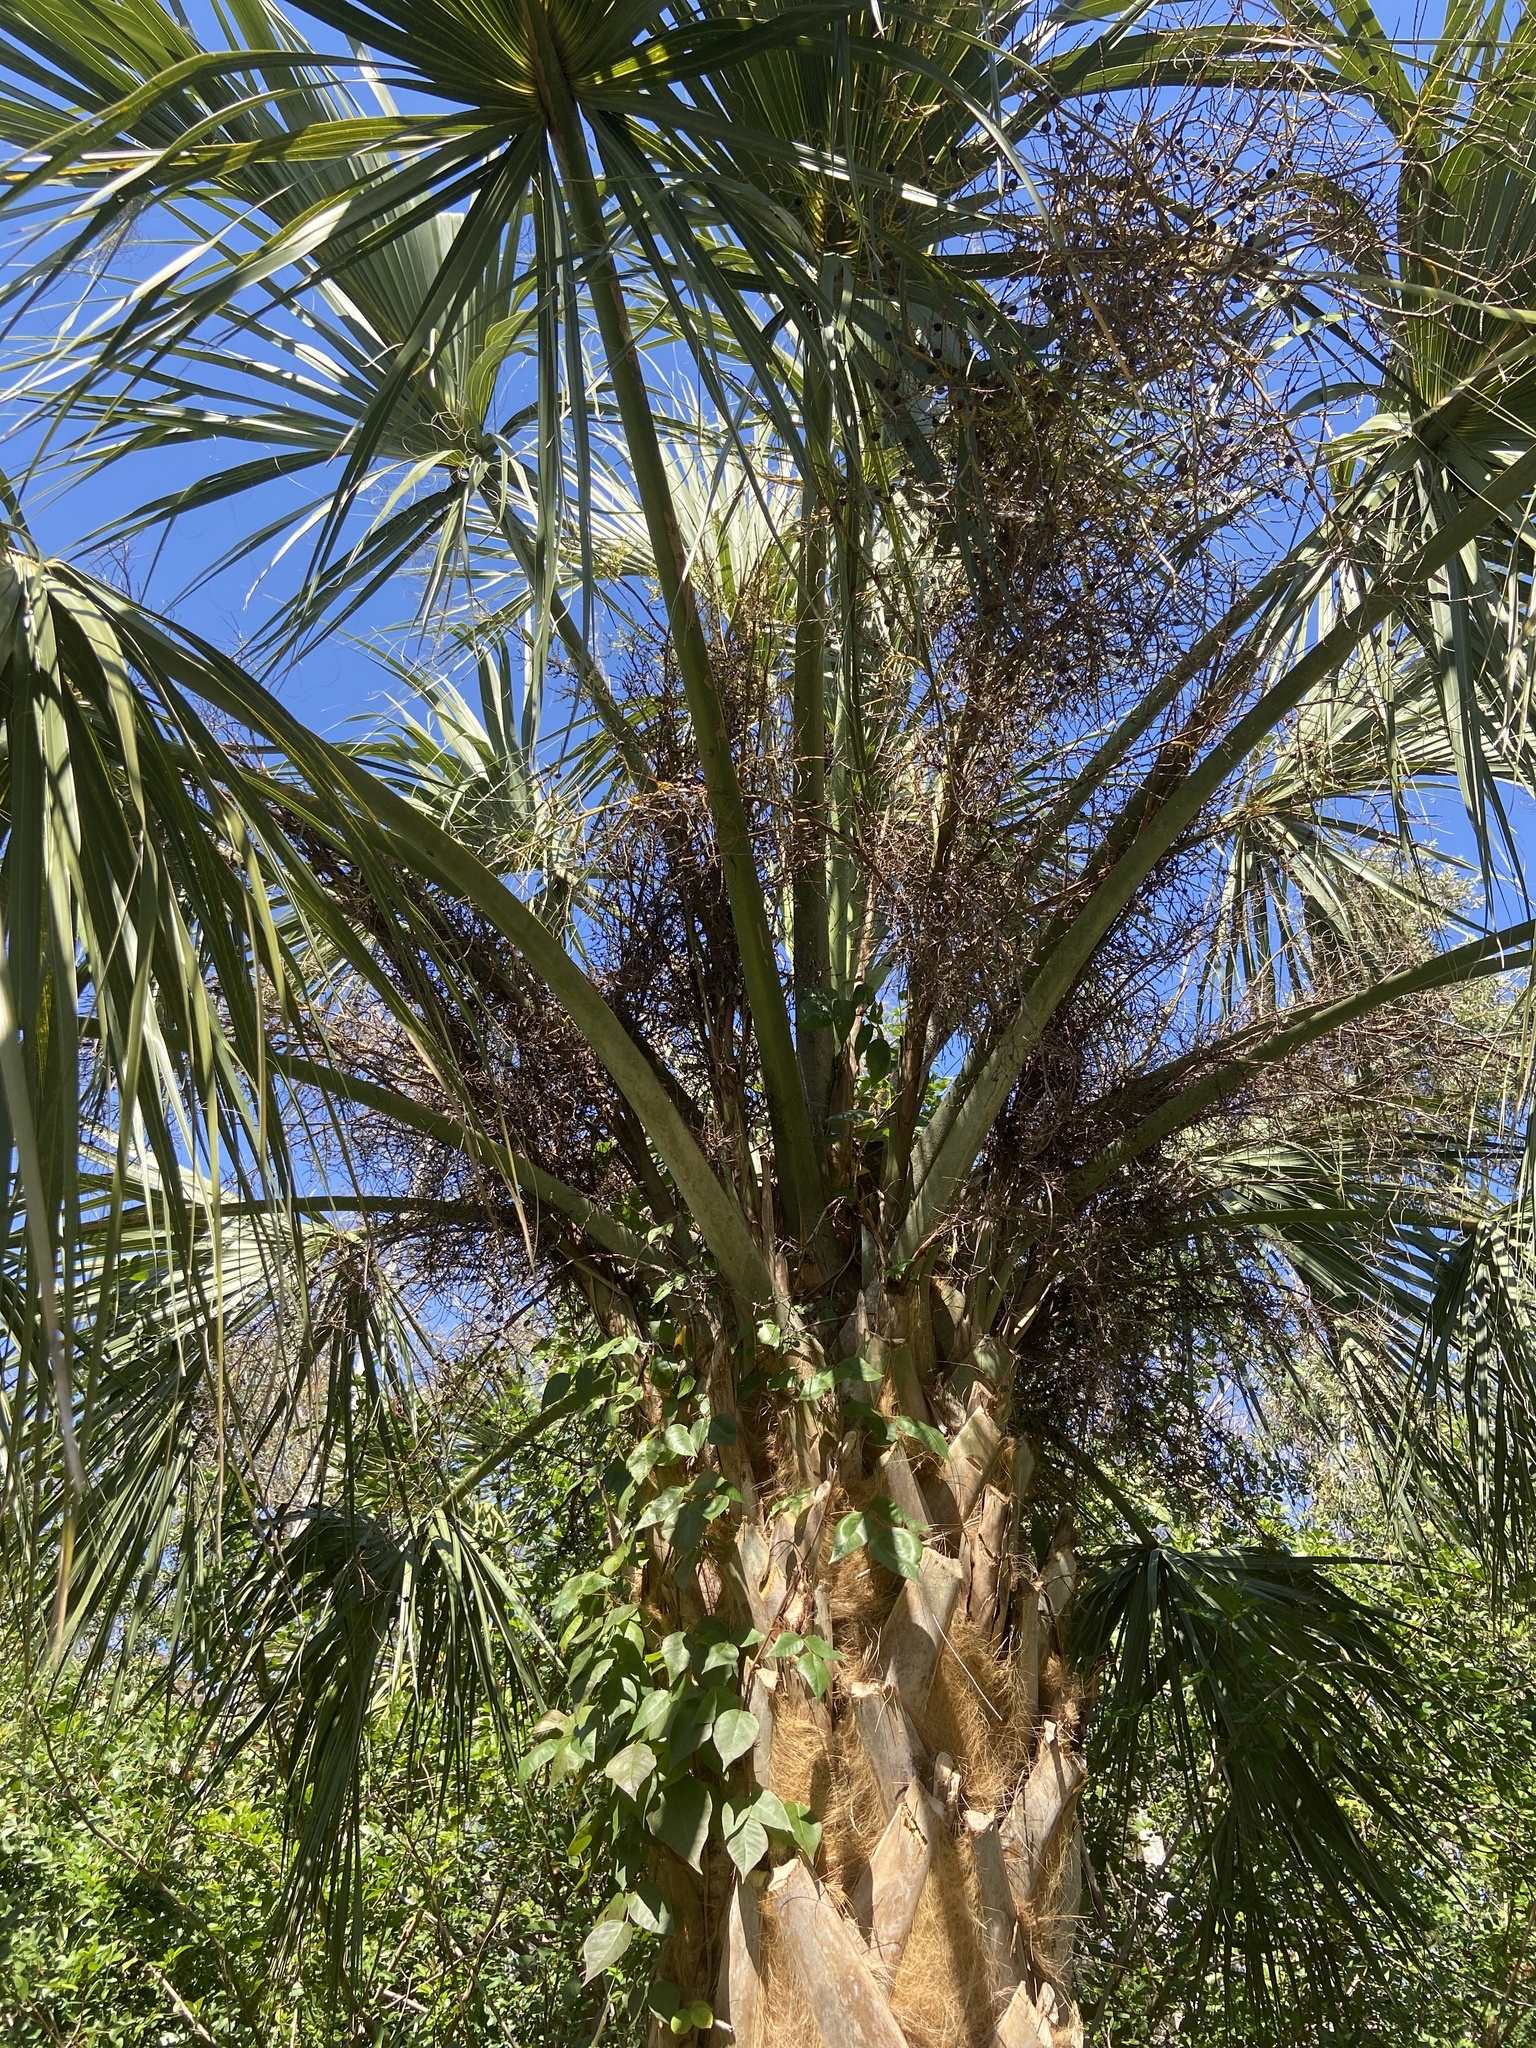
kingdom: Plantae
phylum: Tracheophyta
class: Liliopsida
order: Arecales
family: Arecaceae
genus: Sabal
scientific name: Sabal palmetto
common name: Blue palmetto
